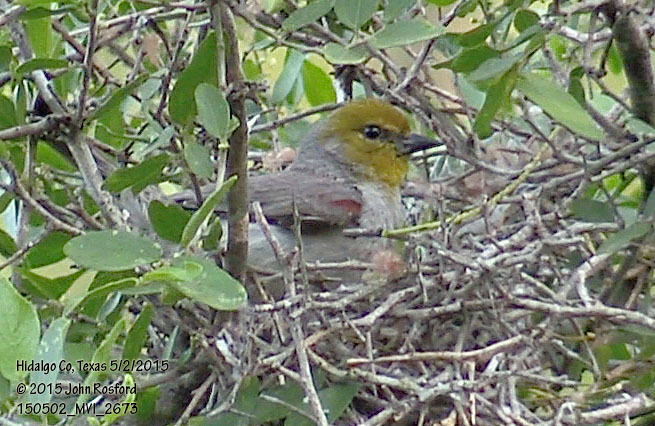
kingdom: Animalia
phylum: Chordata
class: Aves
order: Passeriformes
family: Remizidae
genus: Auriparus
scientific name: Auriparus flaviceps
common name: Verdin
